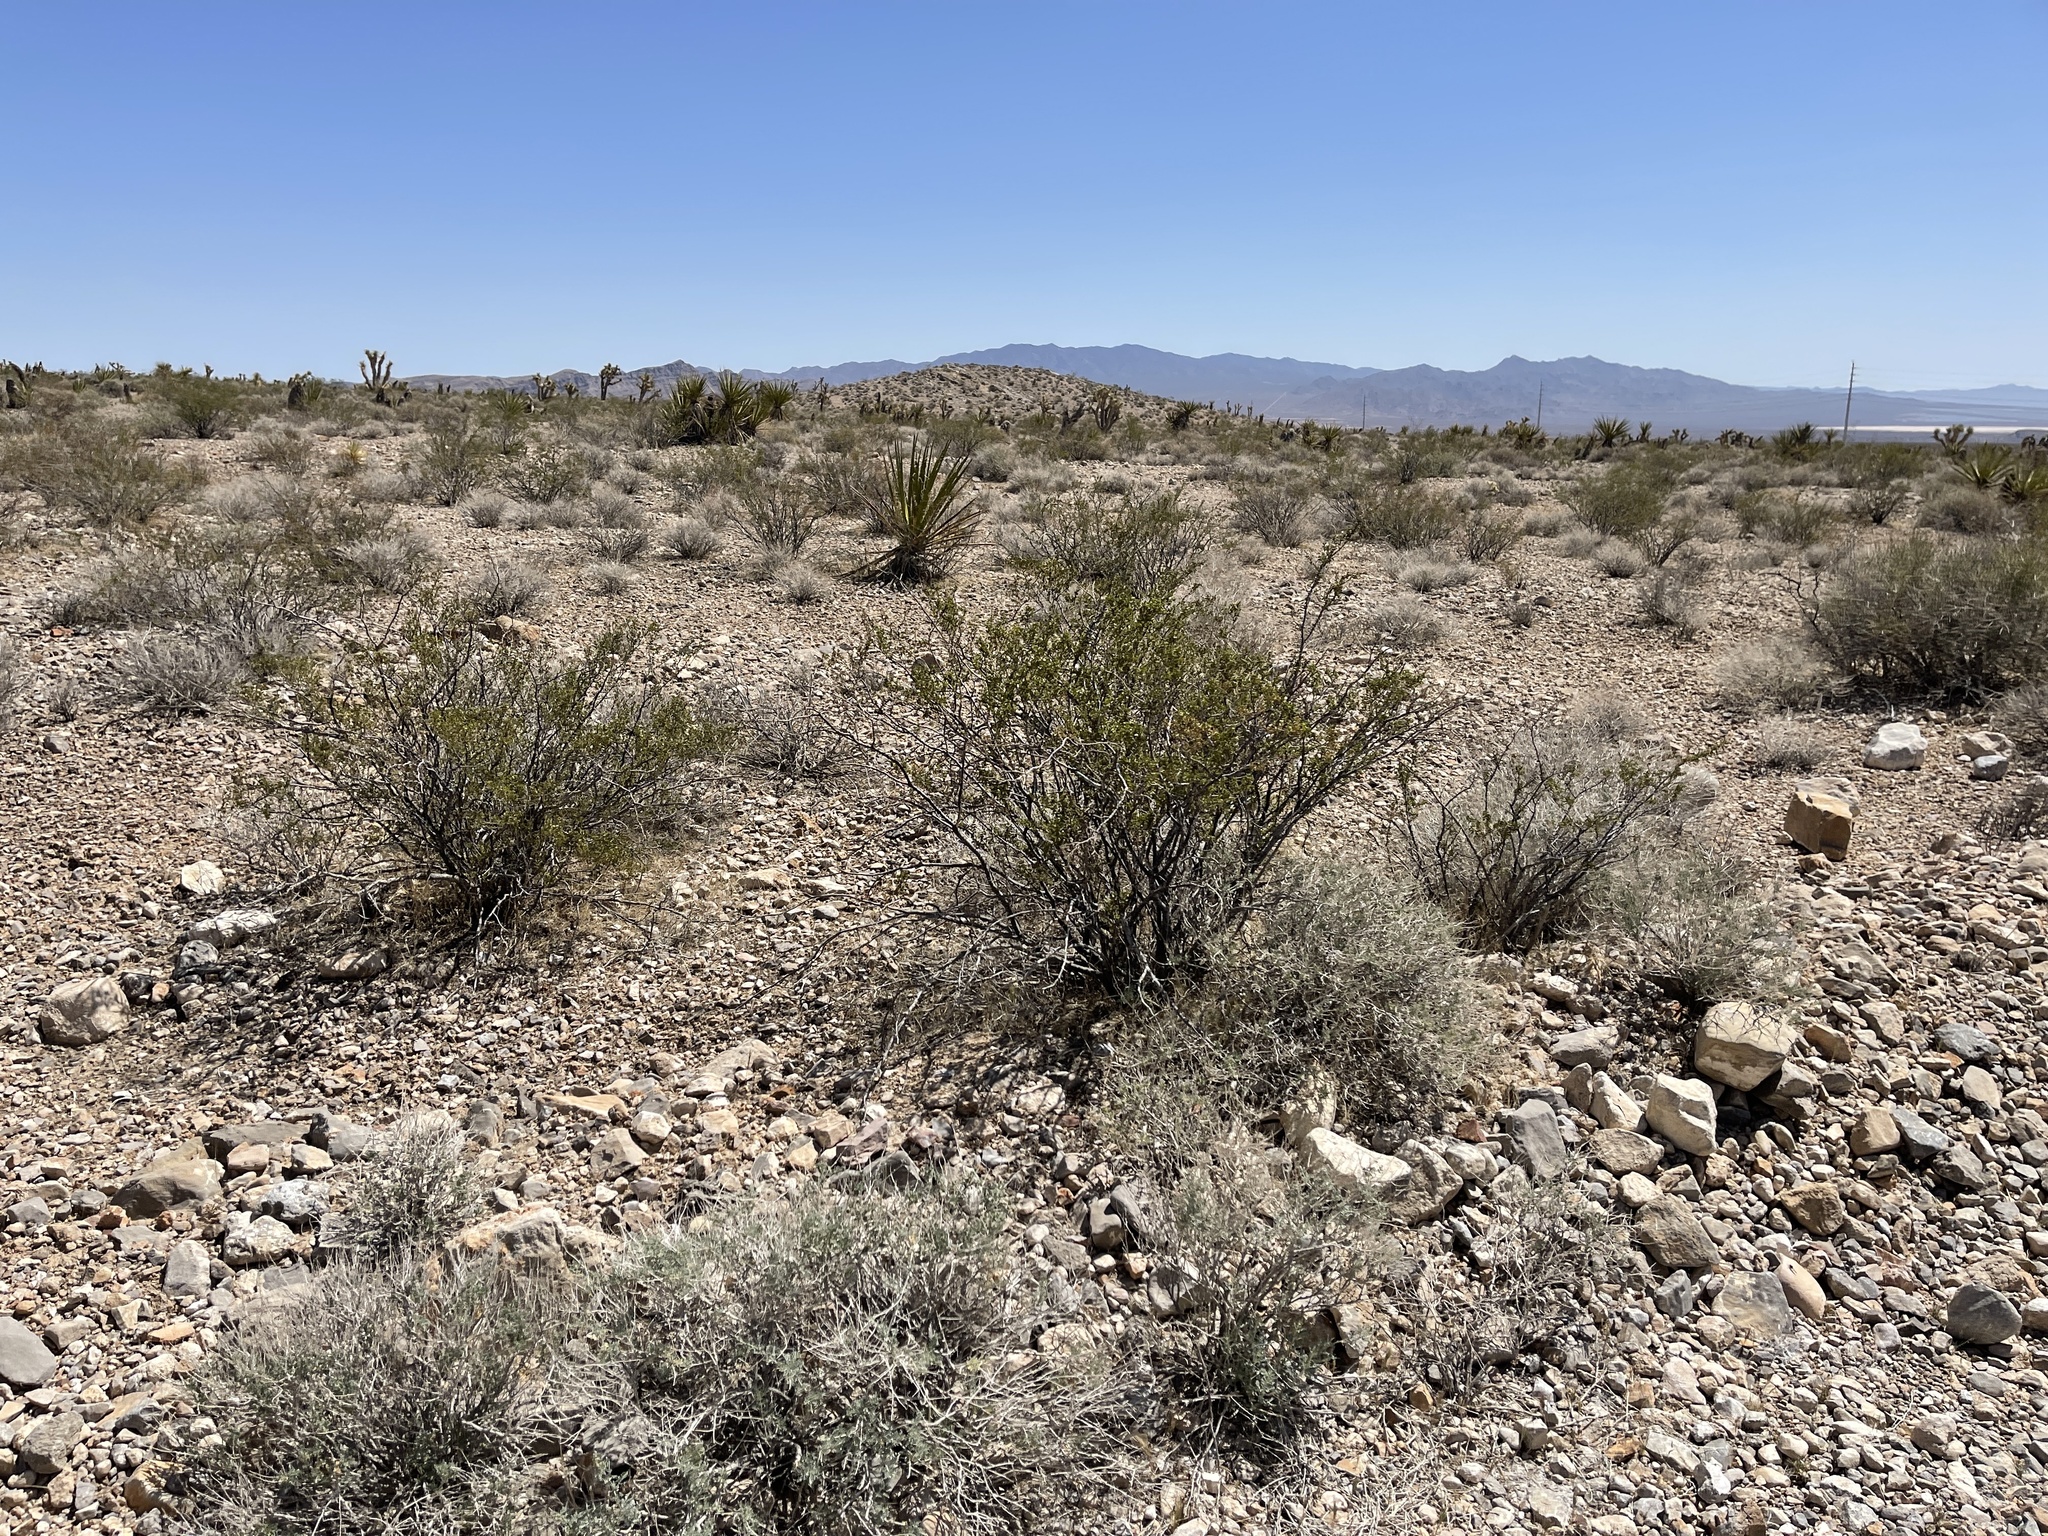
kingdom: Plantae
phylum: Tracheophyta
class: Magnoliopsida
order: Zygophyllales
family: Zygophyllaceae
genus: Larrea
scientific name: Larrea tridentata
